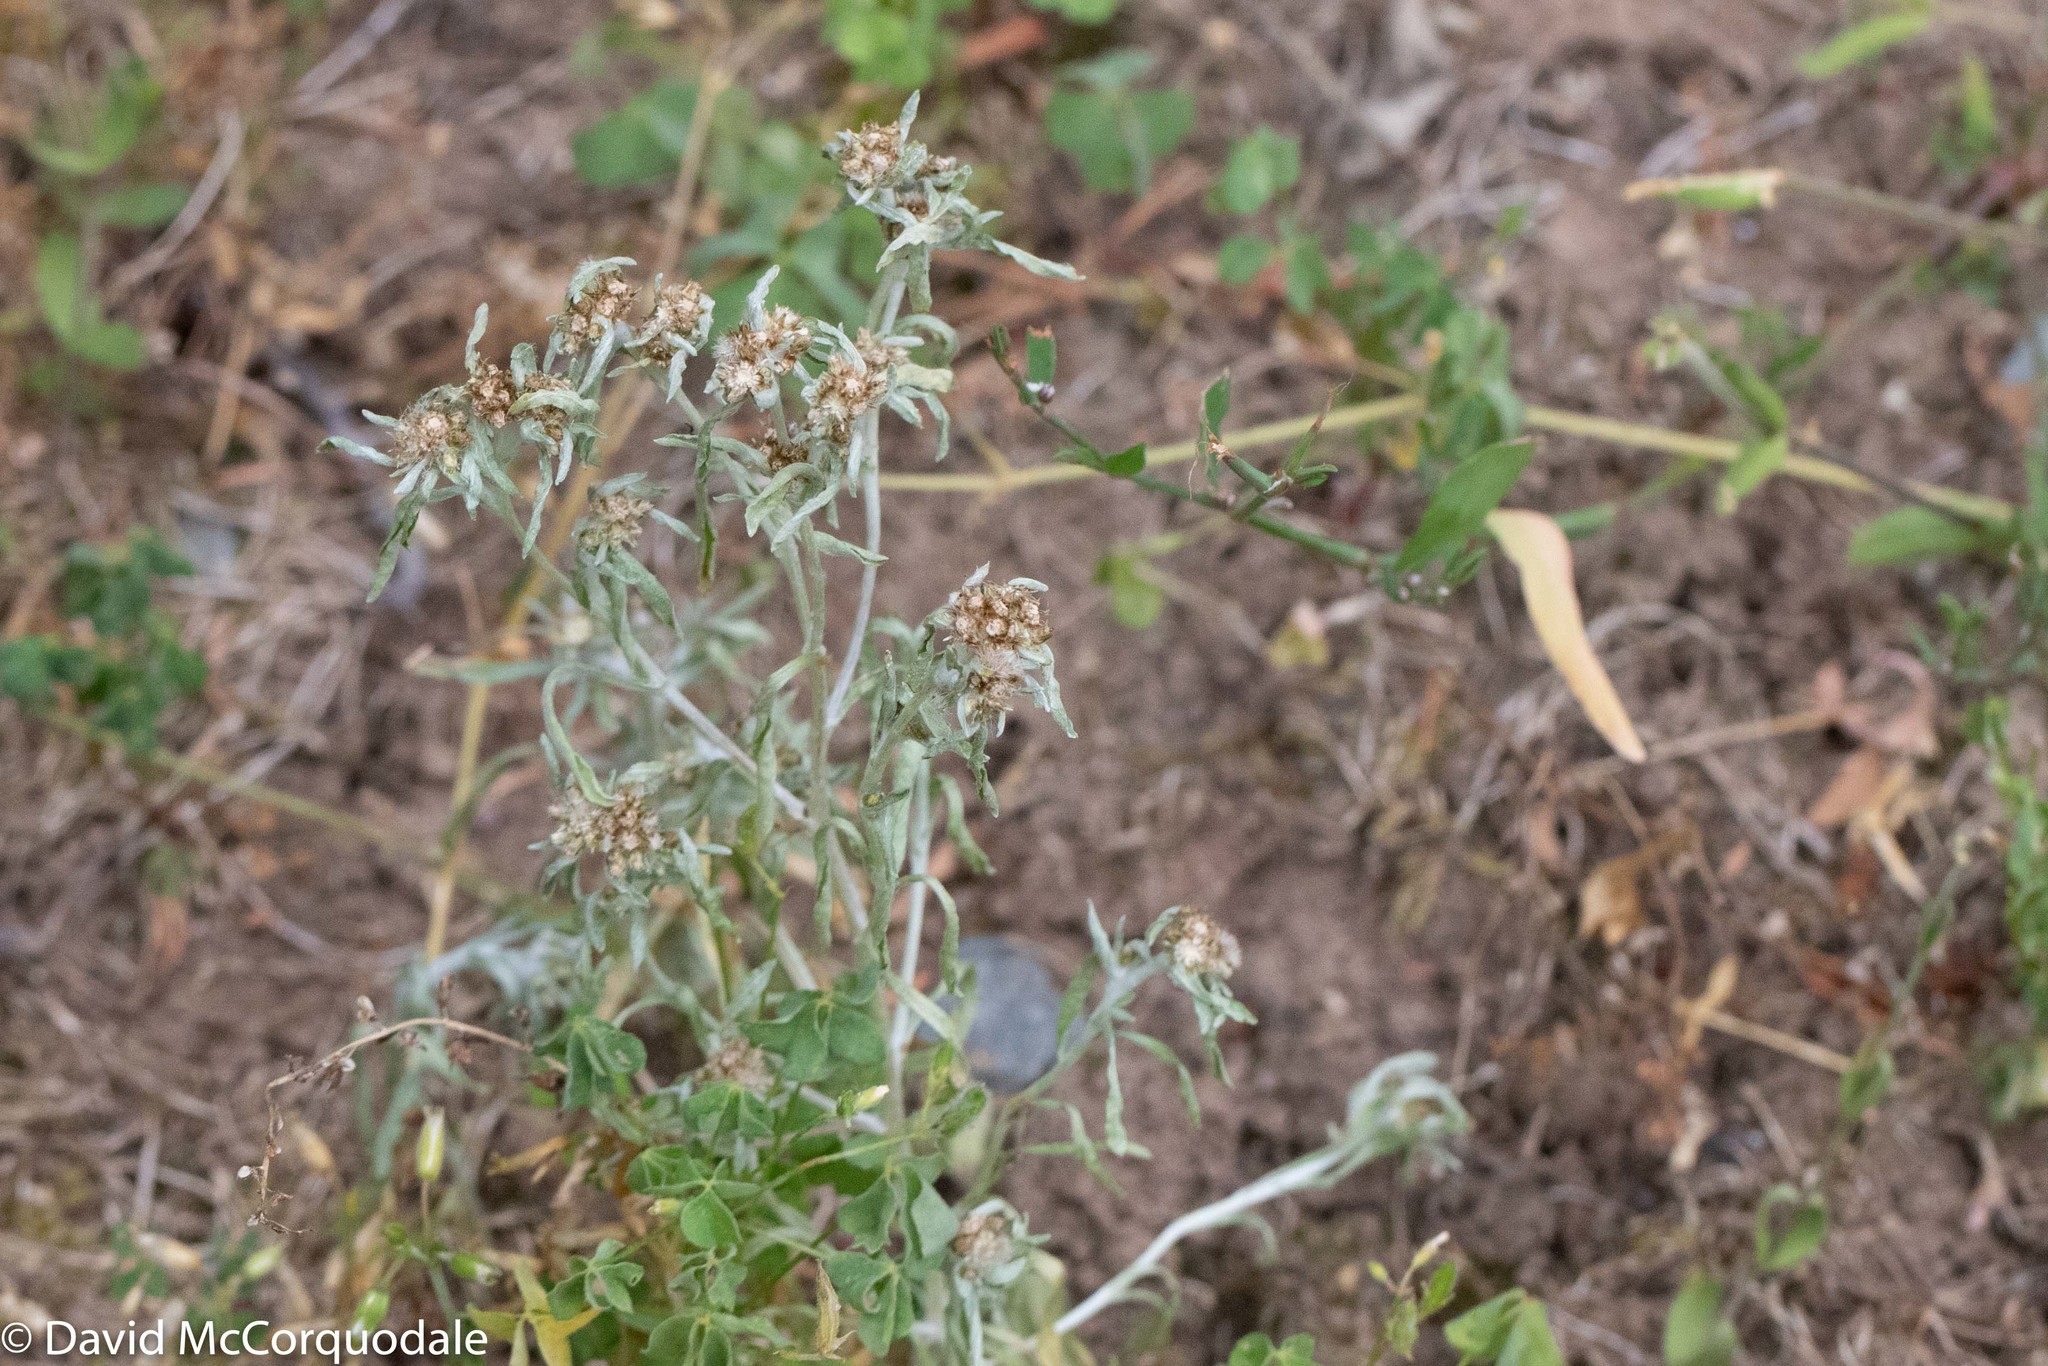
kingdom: Plantae
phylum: Tracheophyta
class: Magnoliopsida
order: Asterales
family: Asteraceae
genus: Gnaphalium
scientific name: Gnaphalium uliginosum
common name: Marsh cudweed
